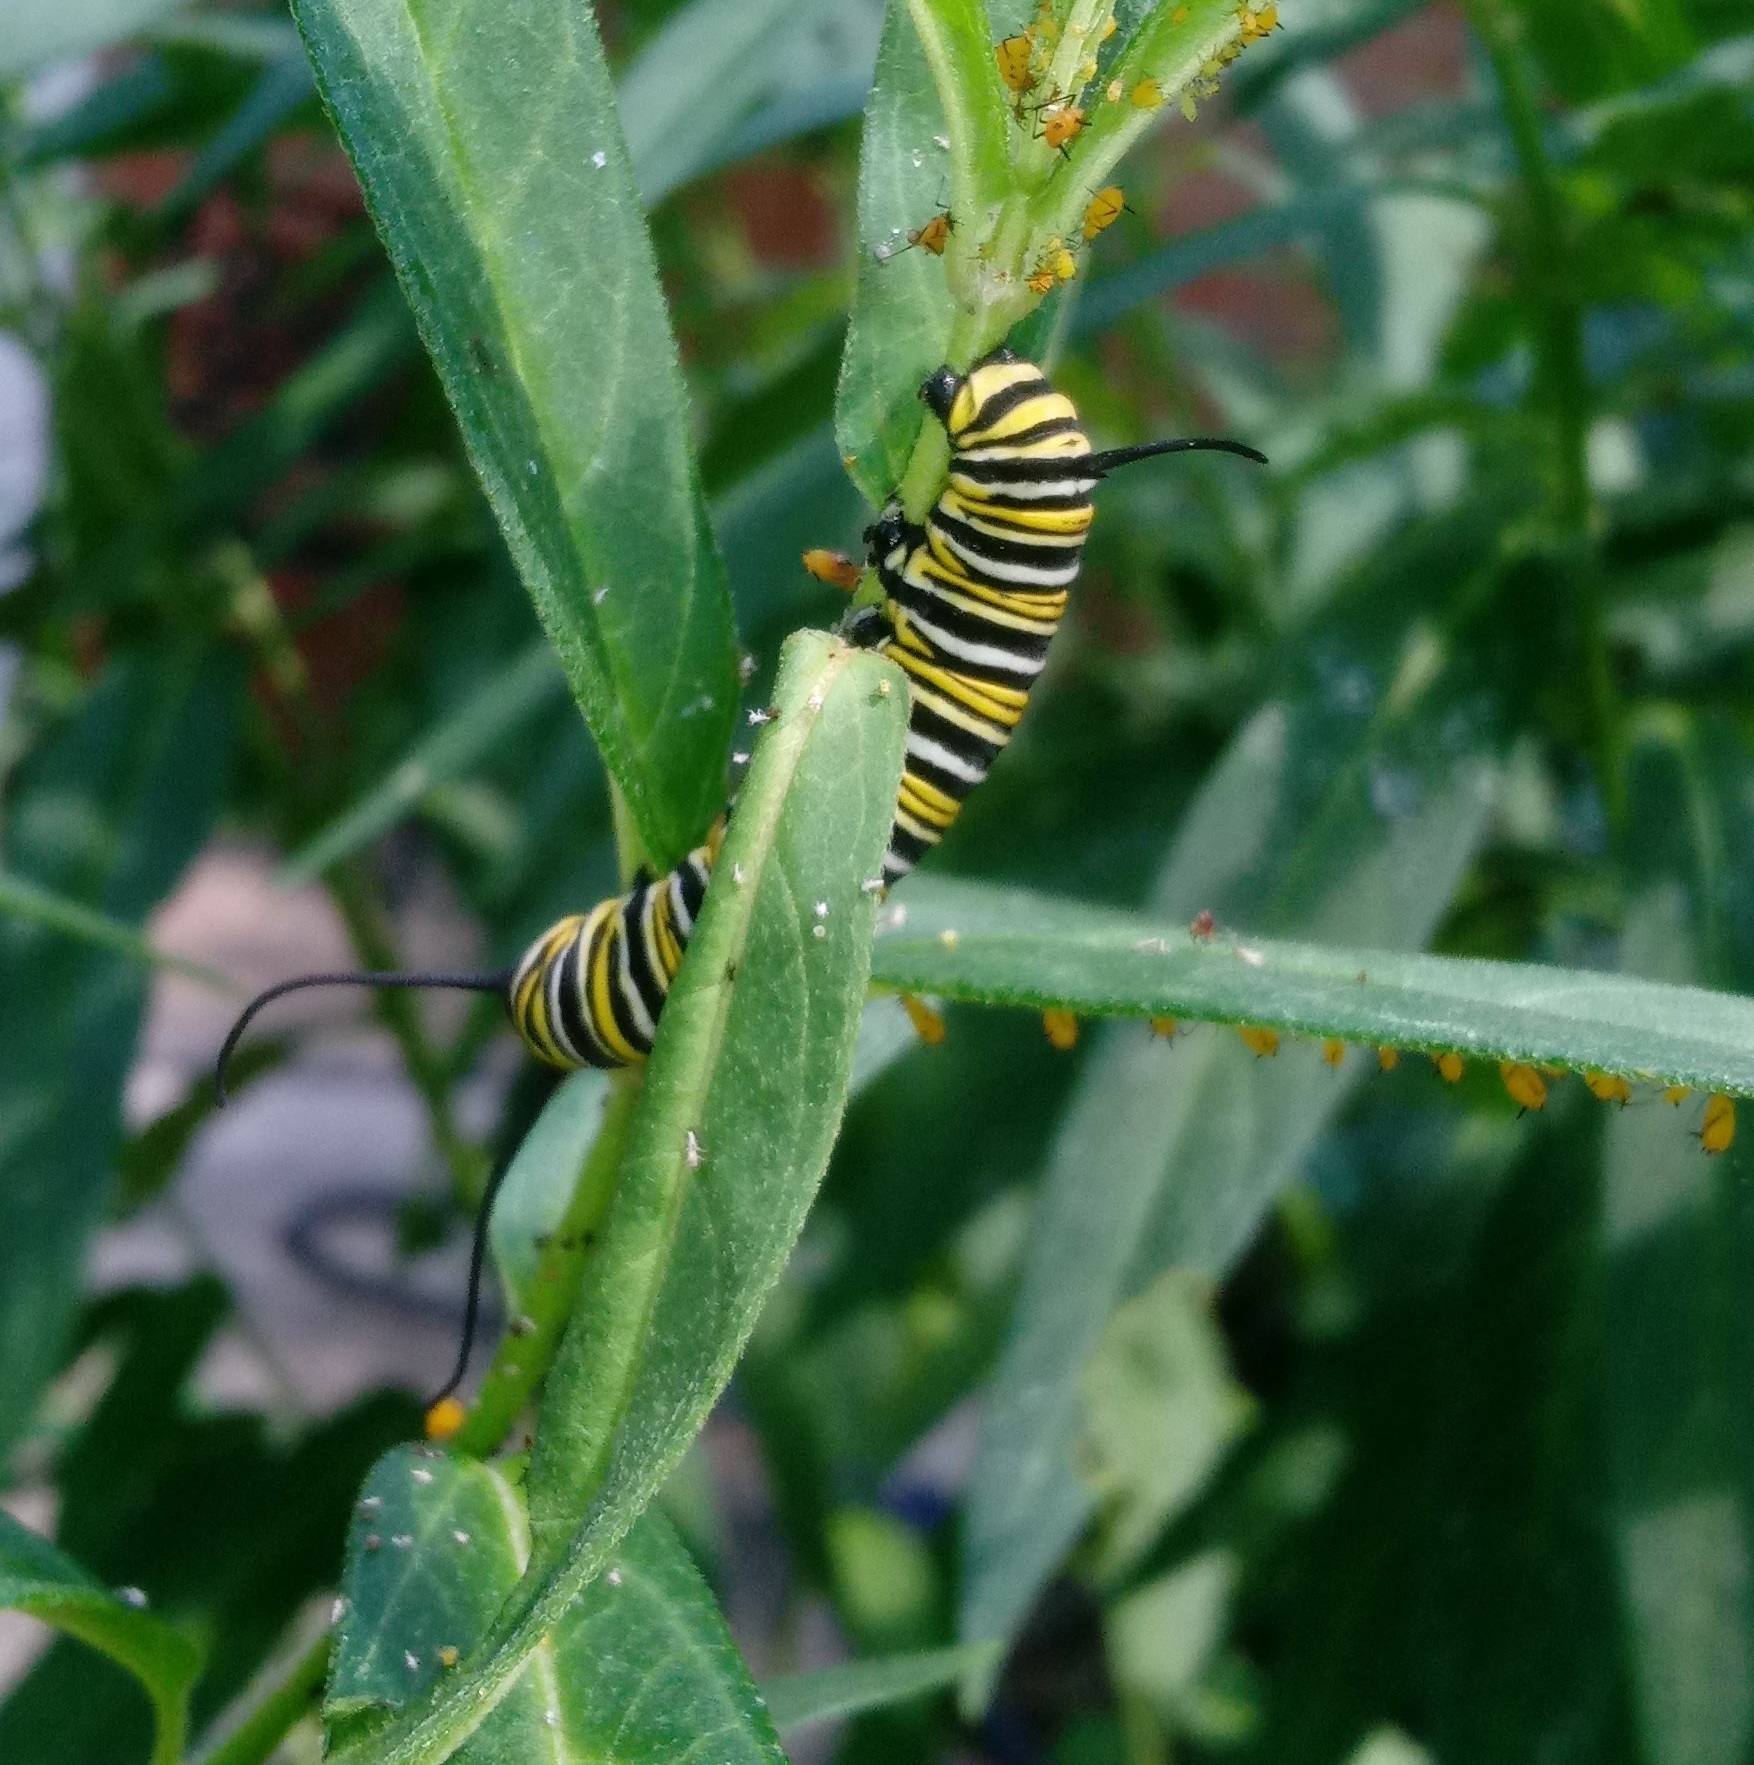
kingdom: Animalia
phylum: Arthropoda
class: Insecta
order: Lepidoptera
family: Nymphalidae
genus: Danaus
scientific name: Danaus plexippus
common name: Monarch
